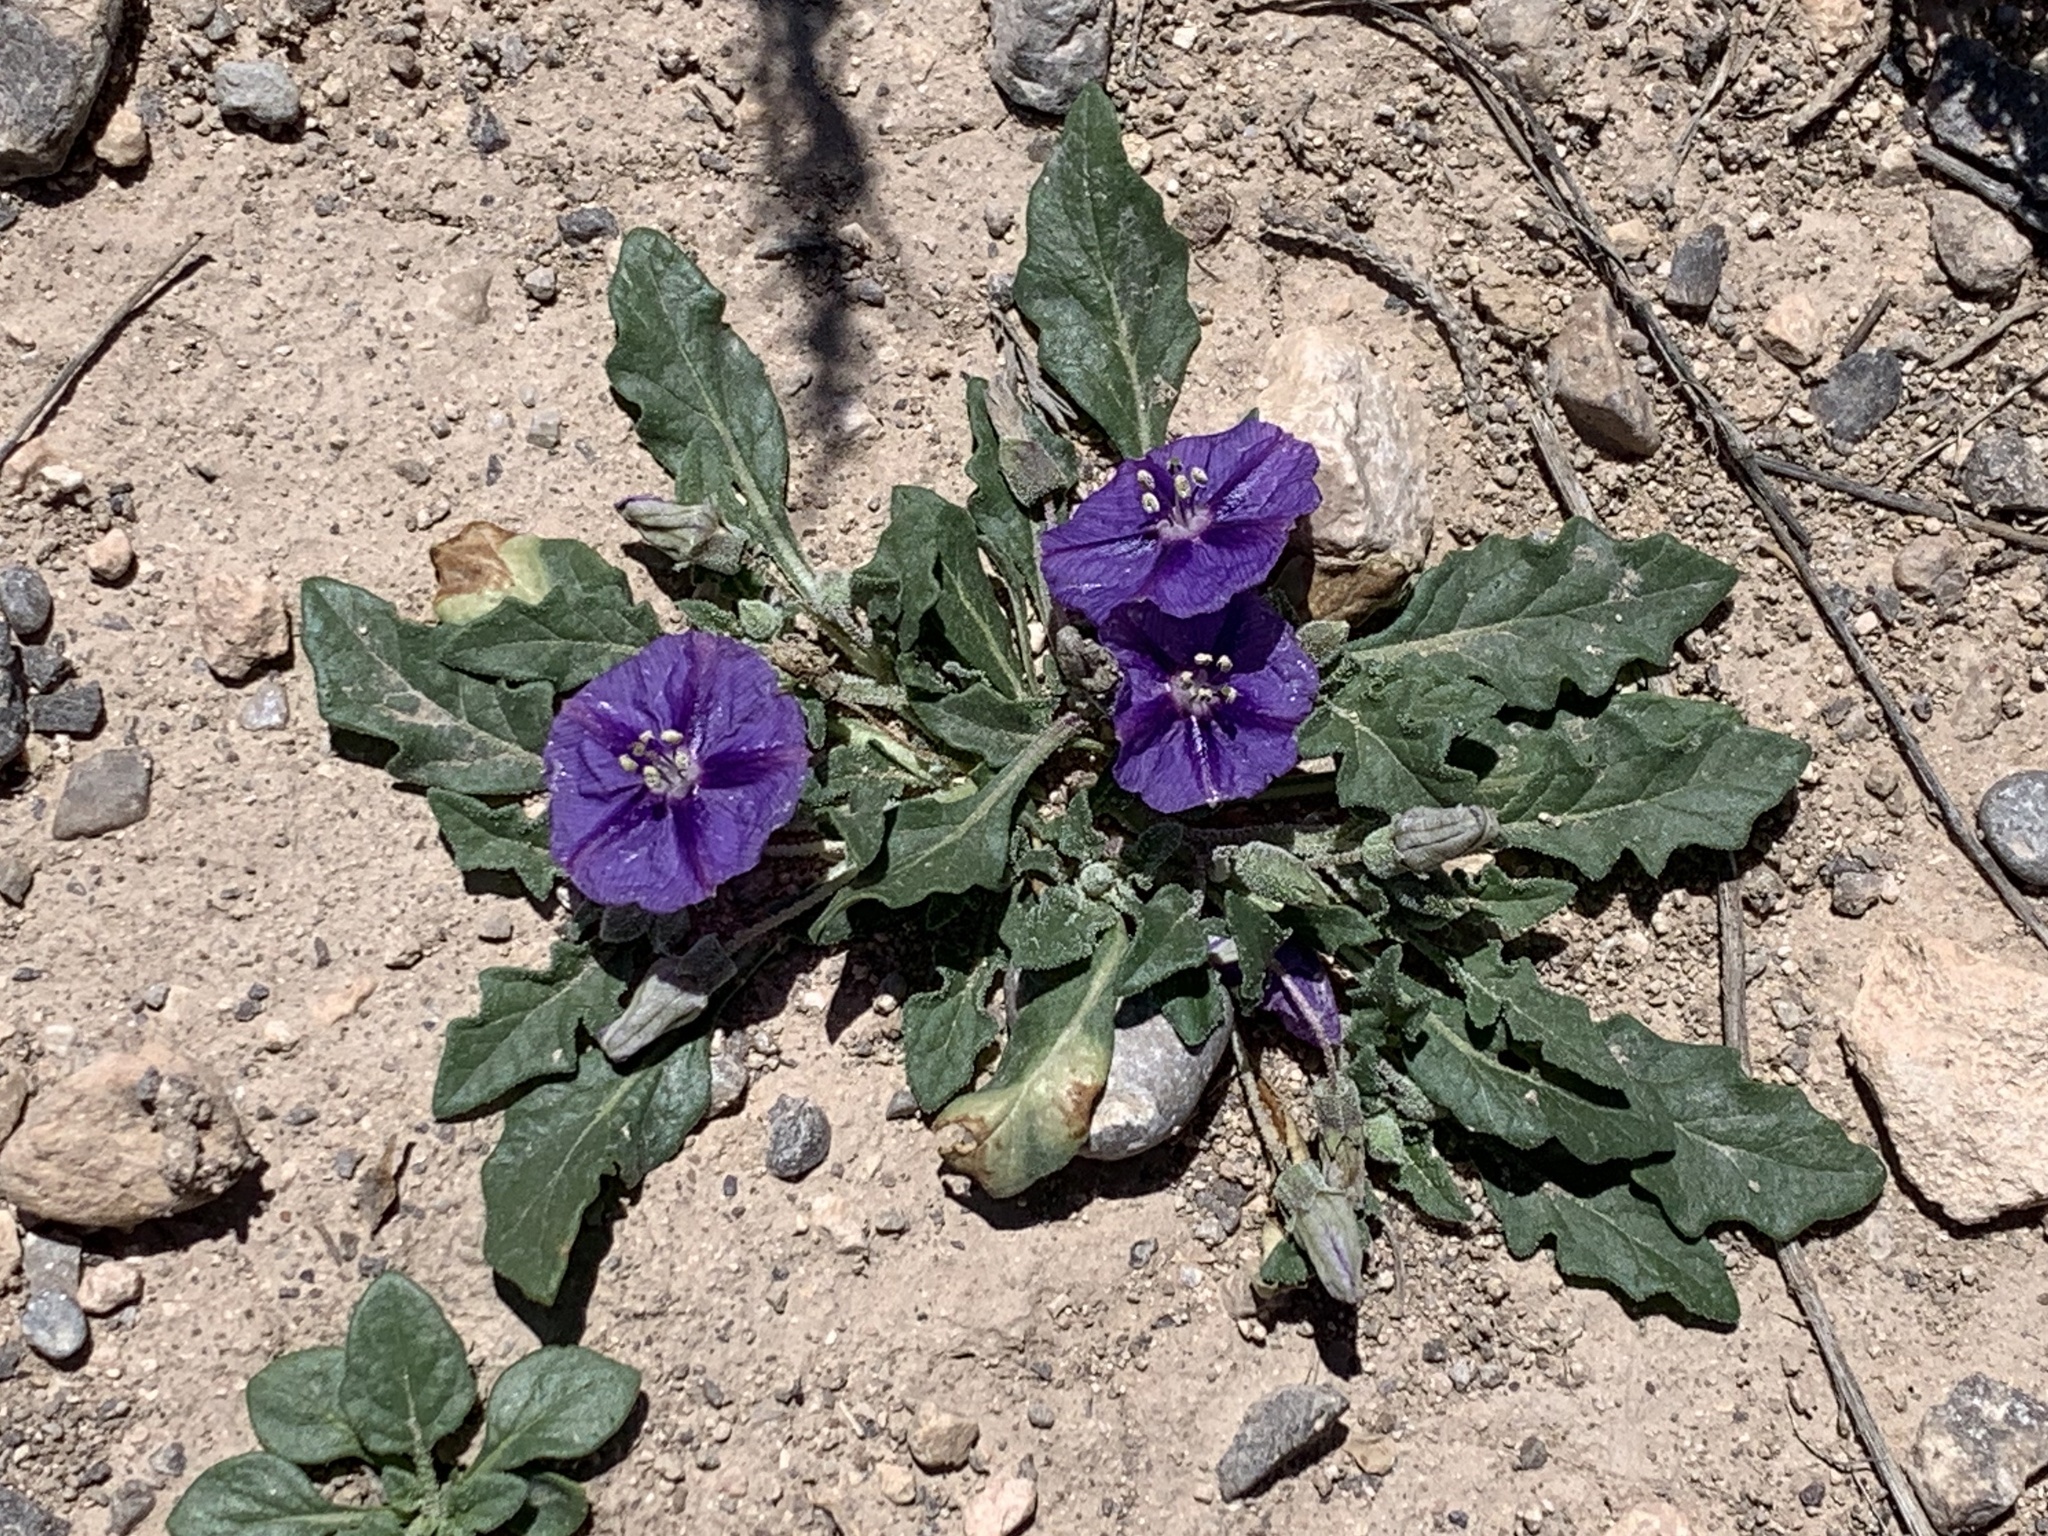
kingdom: Plantae
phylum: Tracheophyta
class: Magnoliopsida
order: Solanales
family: Solanaceae
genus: Quincula
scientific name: Quincula lobata
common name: Purple-ground-cherry
